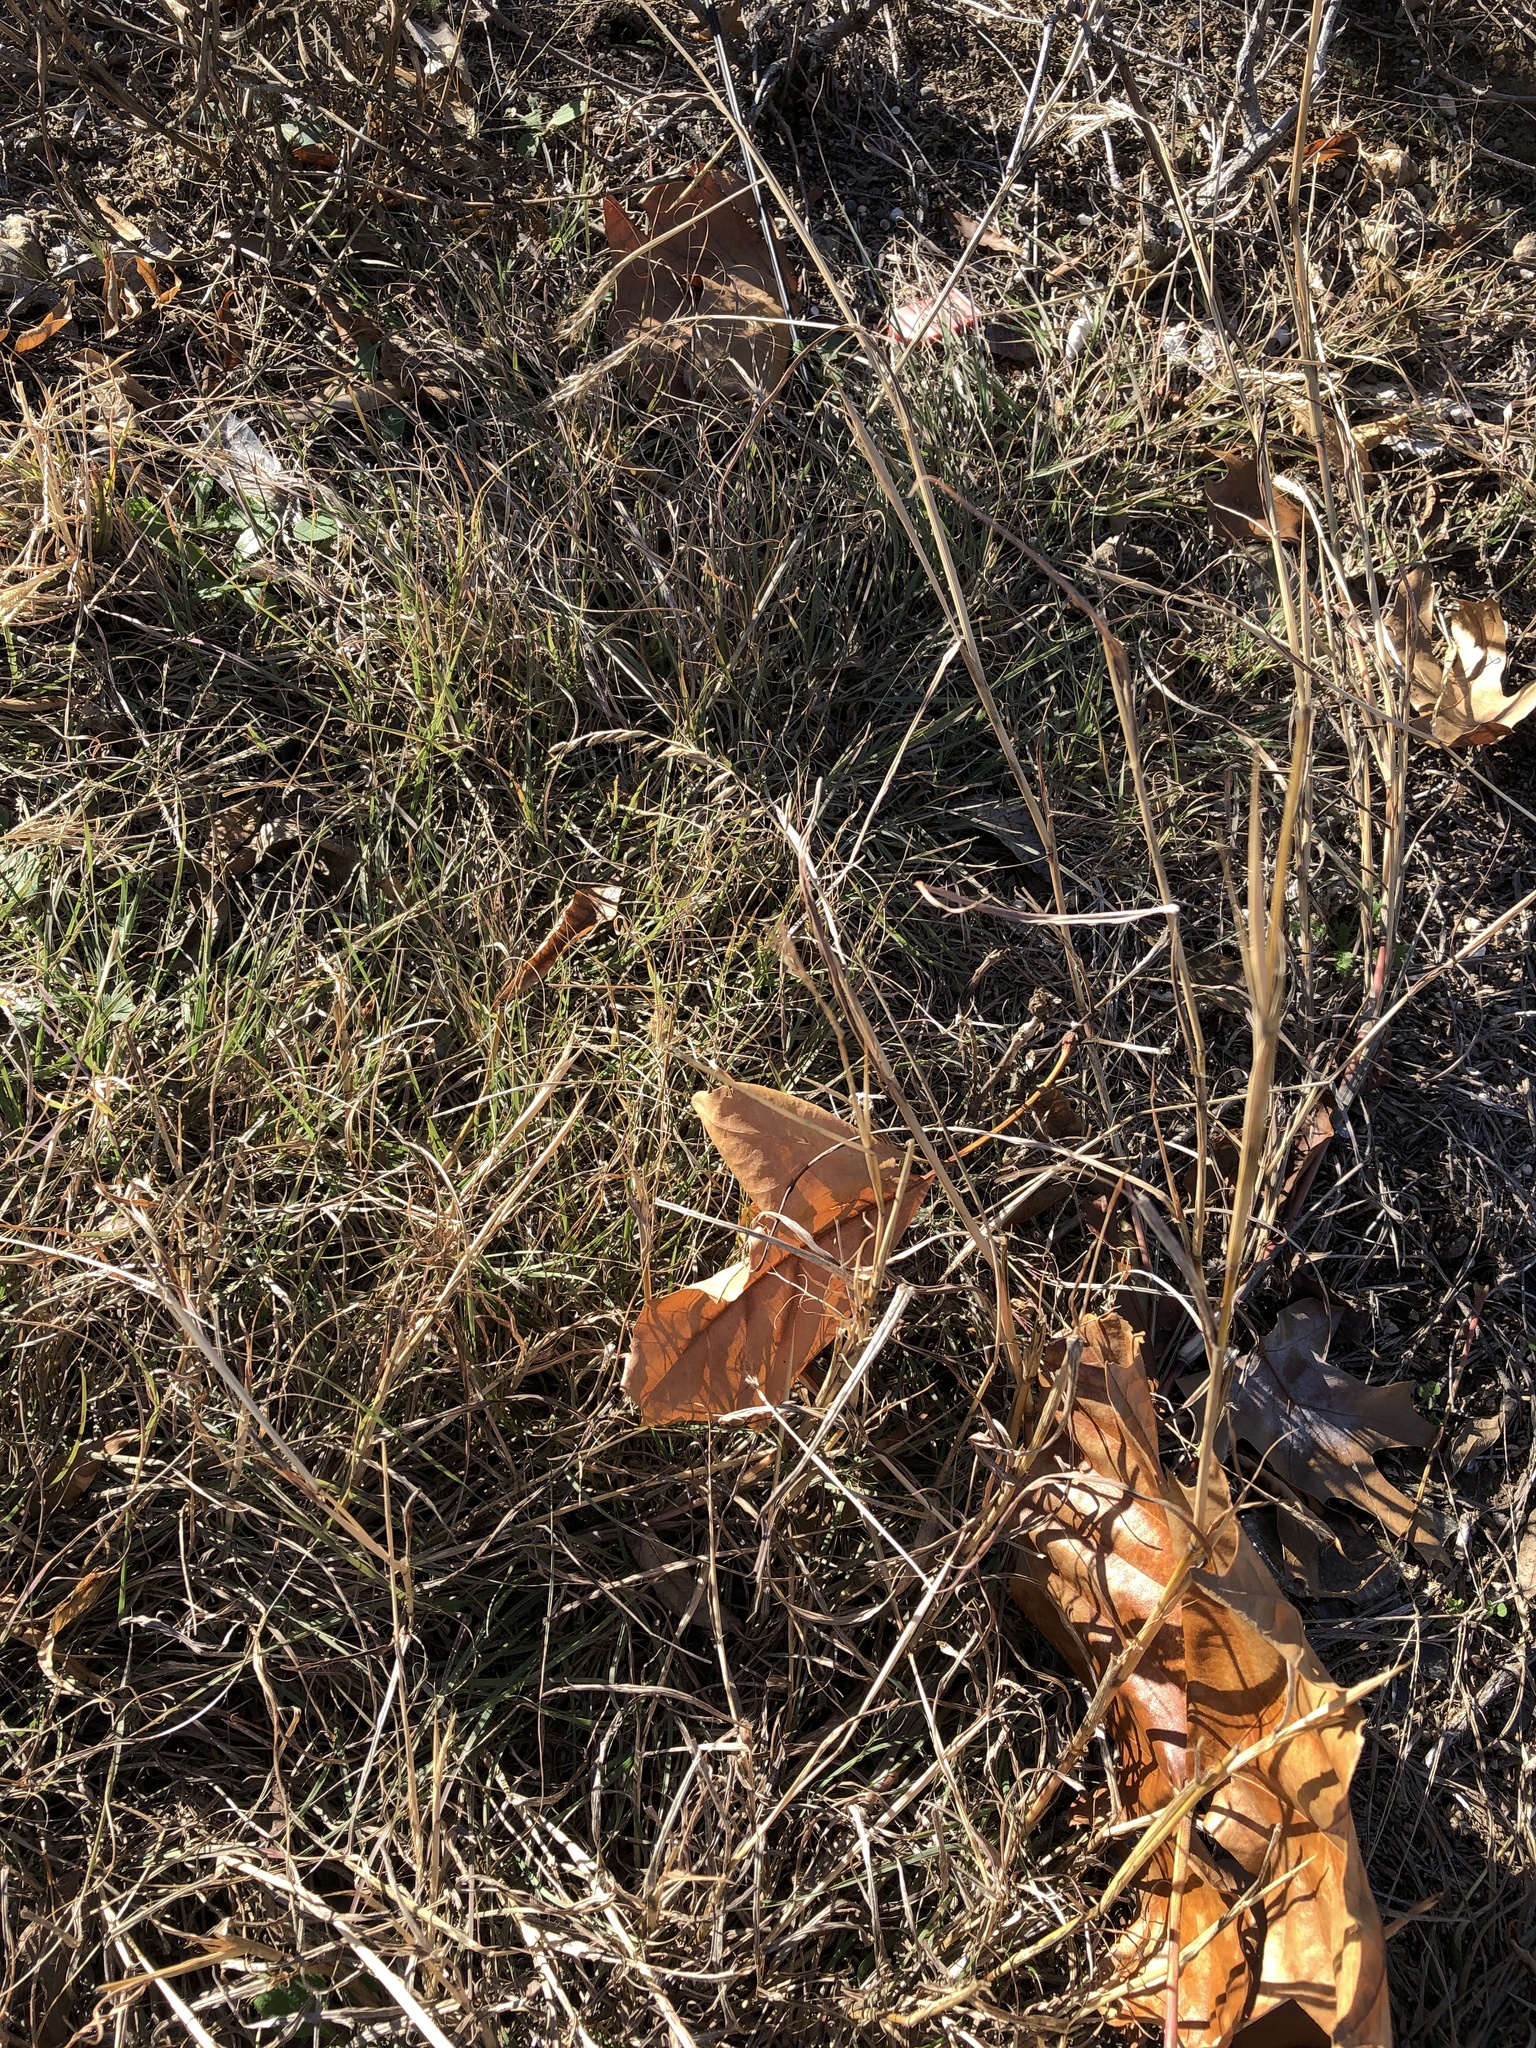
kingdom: Plantae
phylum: Tracheophyta
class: Liliopsida
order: Poales
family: Poaceae
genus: Bouteloua
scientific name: Bouteloua curtipendula
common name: Side-oats grama
